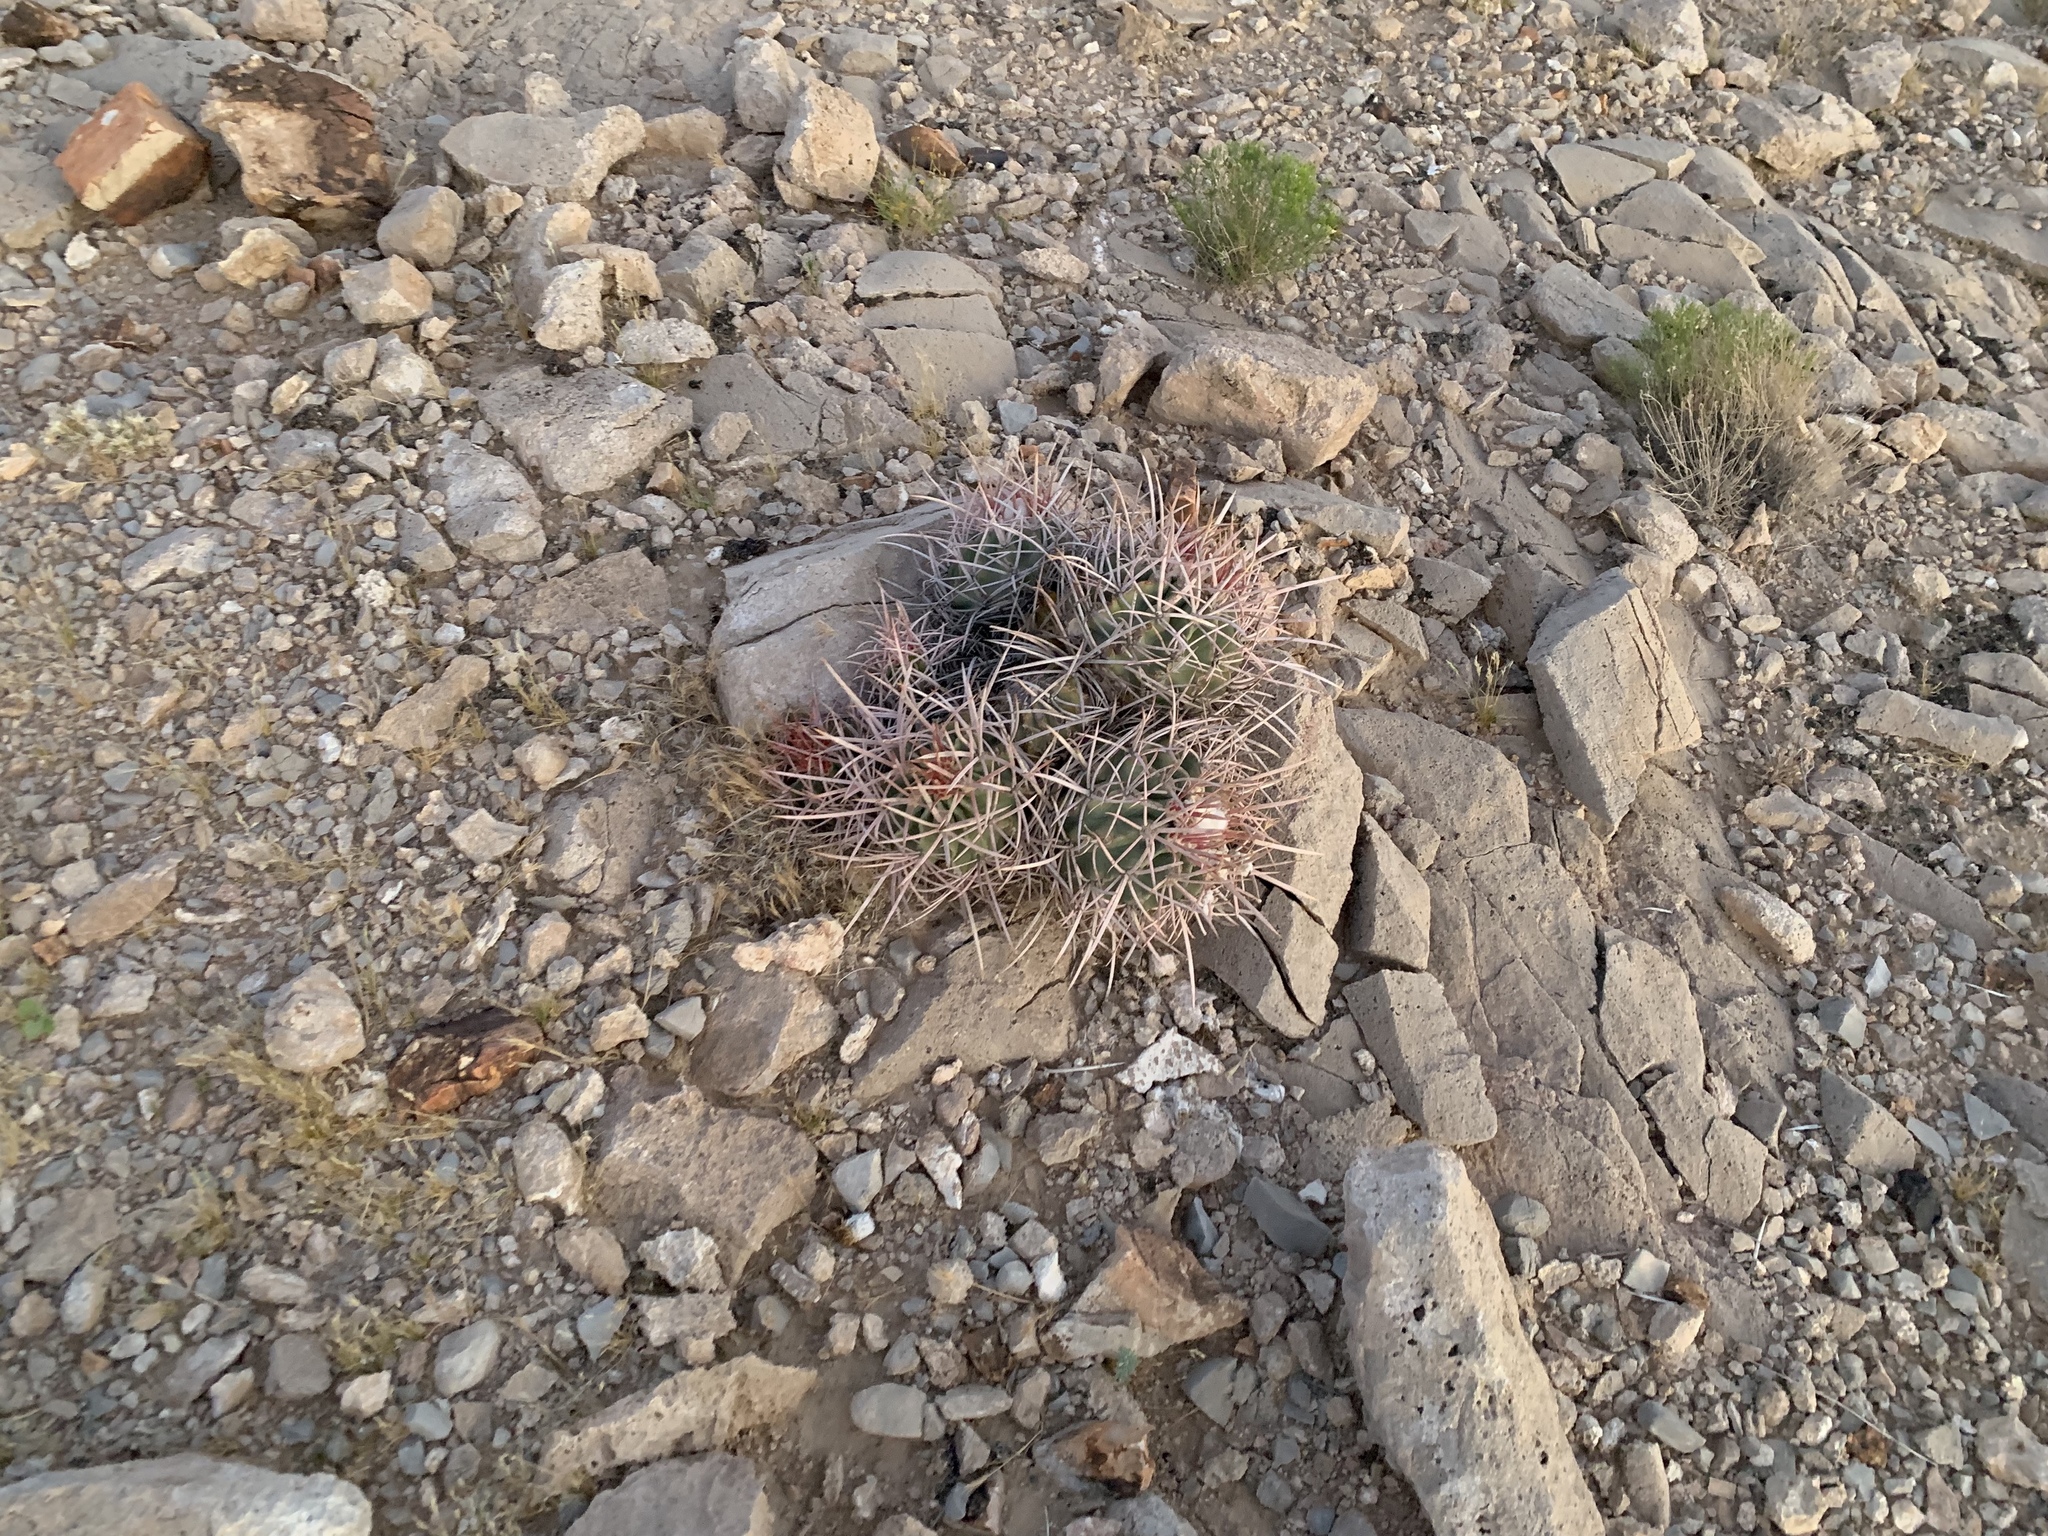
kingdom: Plantae
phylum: Tracheophyta
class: Magnoliopsida
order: Caryophyllales
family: Cactaceae
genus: Echinocactus
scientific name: Echinocactus polycephalus
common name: Cottontop cactus
